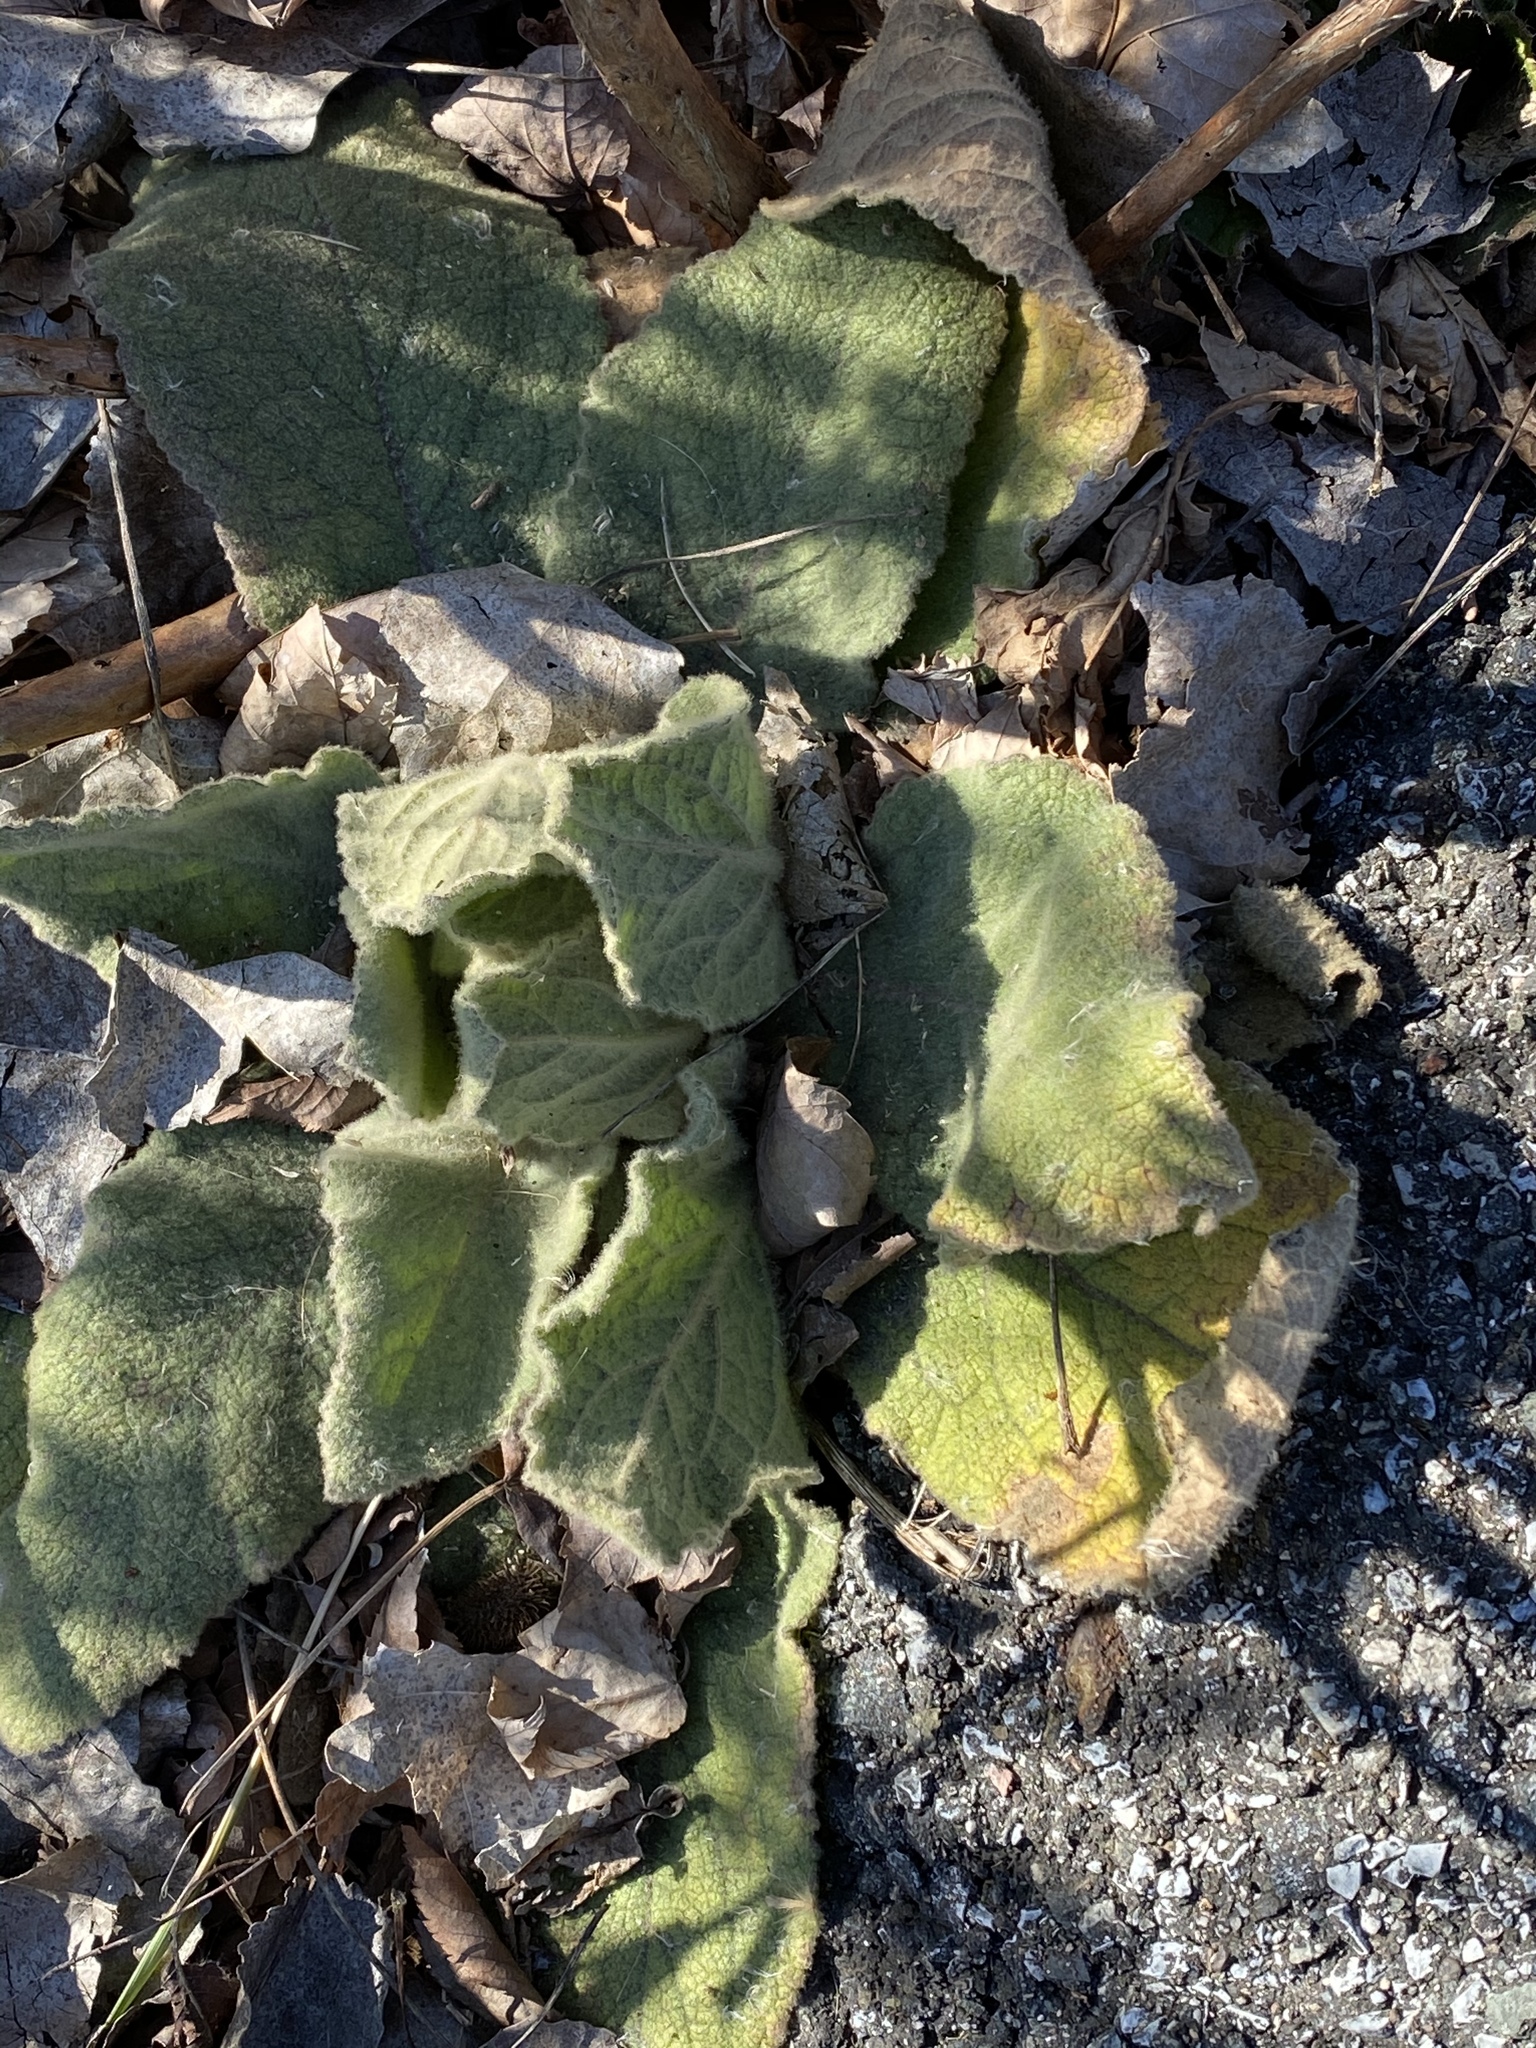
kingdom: Plantae
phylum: Tracheophyta
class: Magnoliopsida
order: Lamiales
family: Scrophulariaceae
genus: Verbascum
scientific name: Verbascum thapsus
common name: Common mullein
